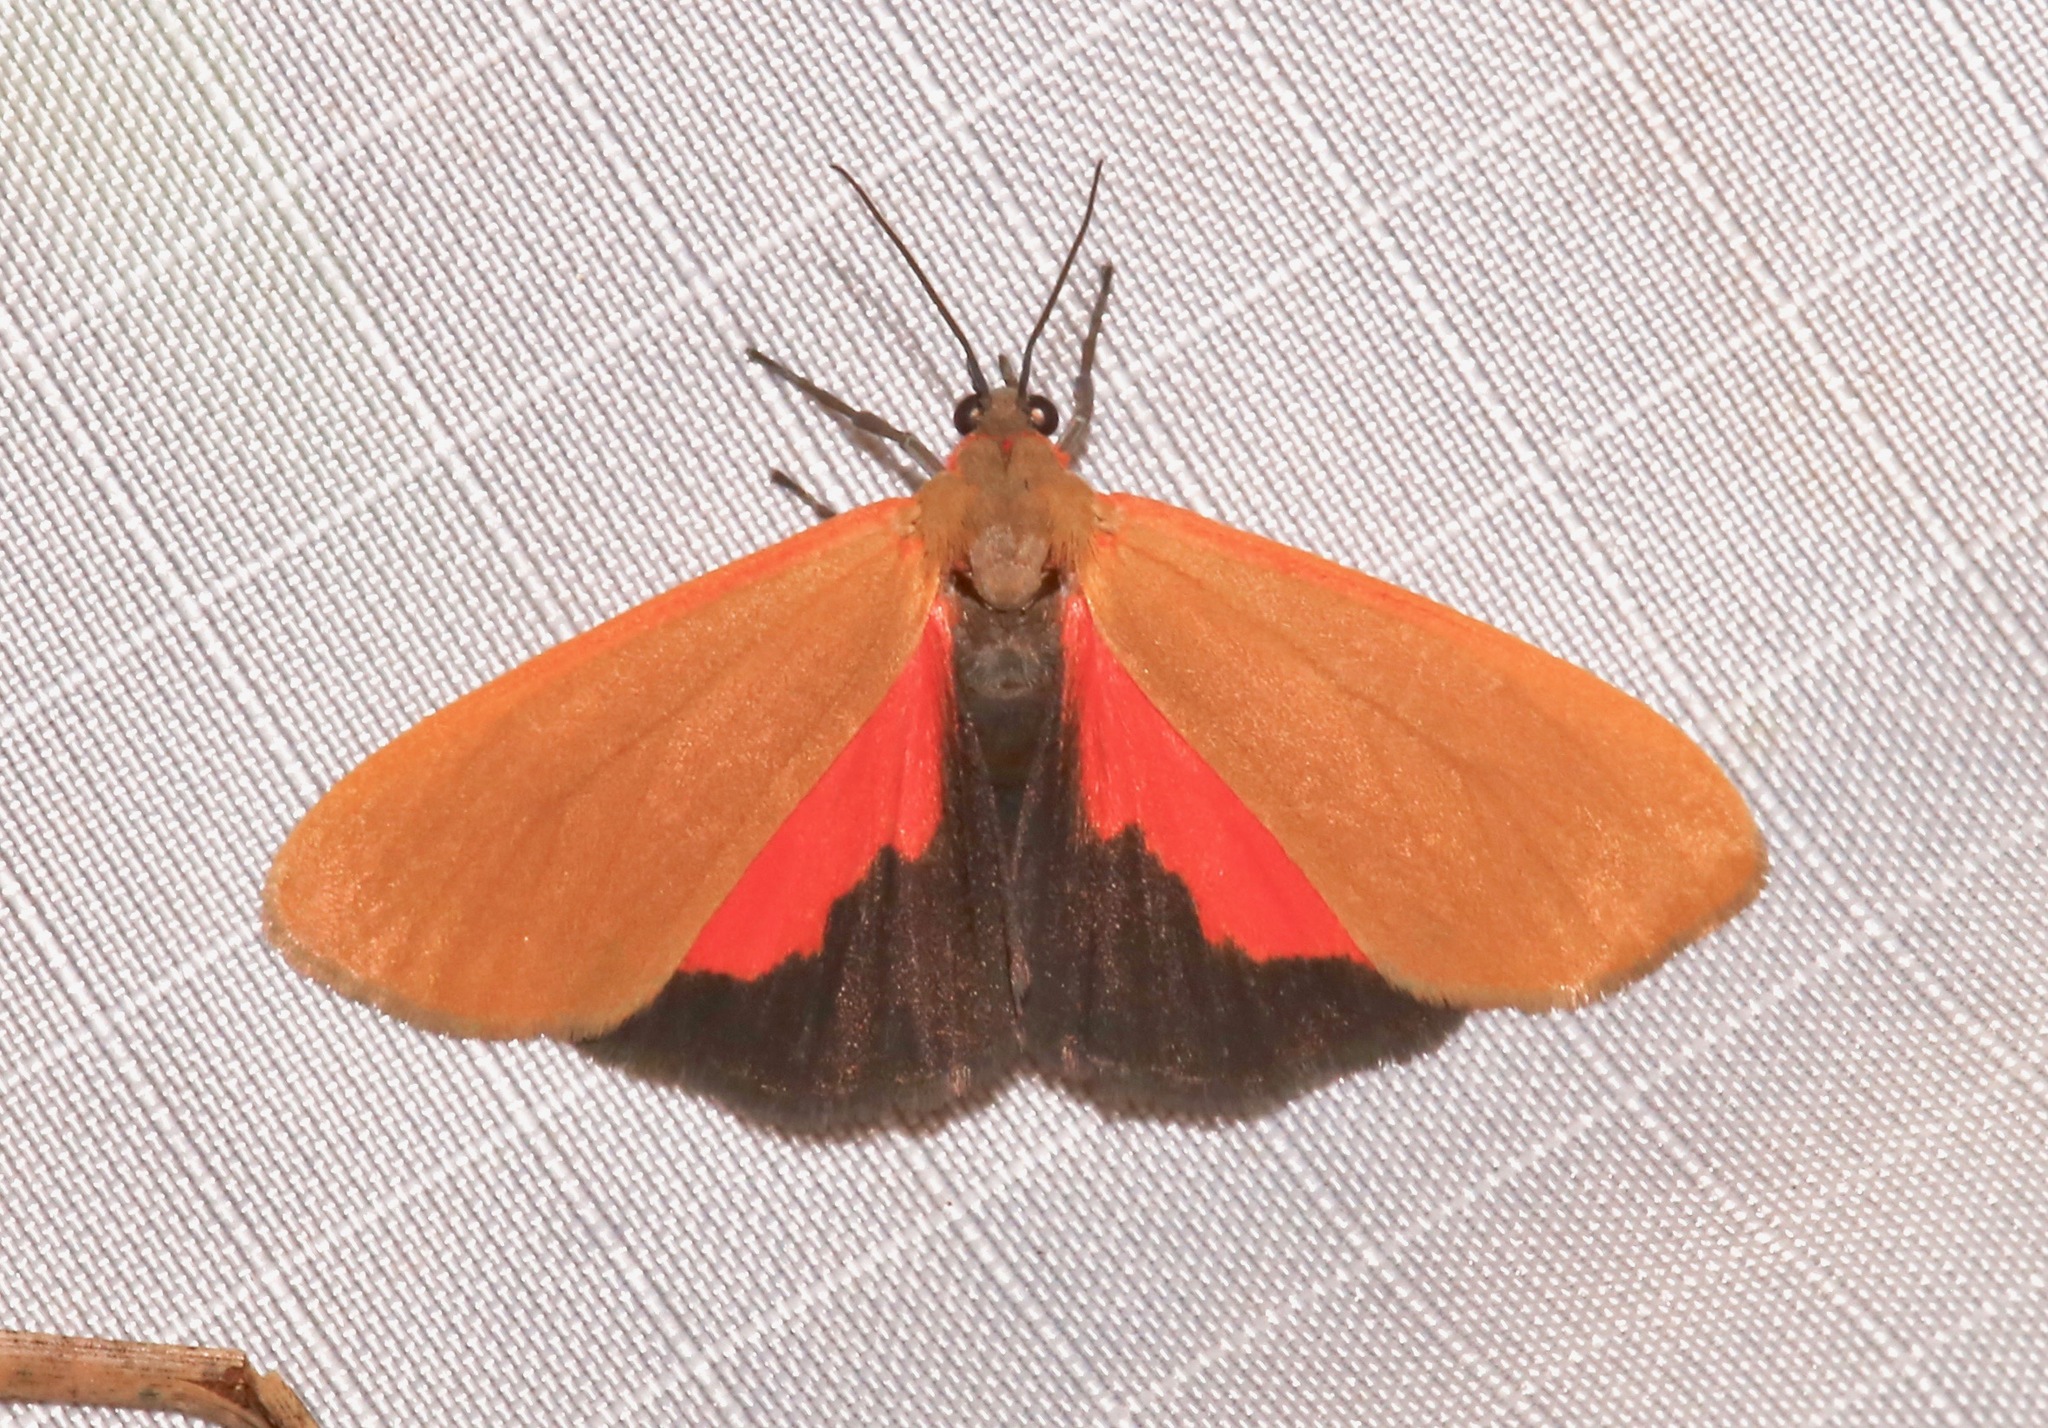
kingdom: Animalia
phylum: Arthropoda
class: Insecta
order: Lepidoptera
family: Erebidae
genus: Virbia
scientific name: Virbia ostenta
